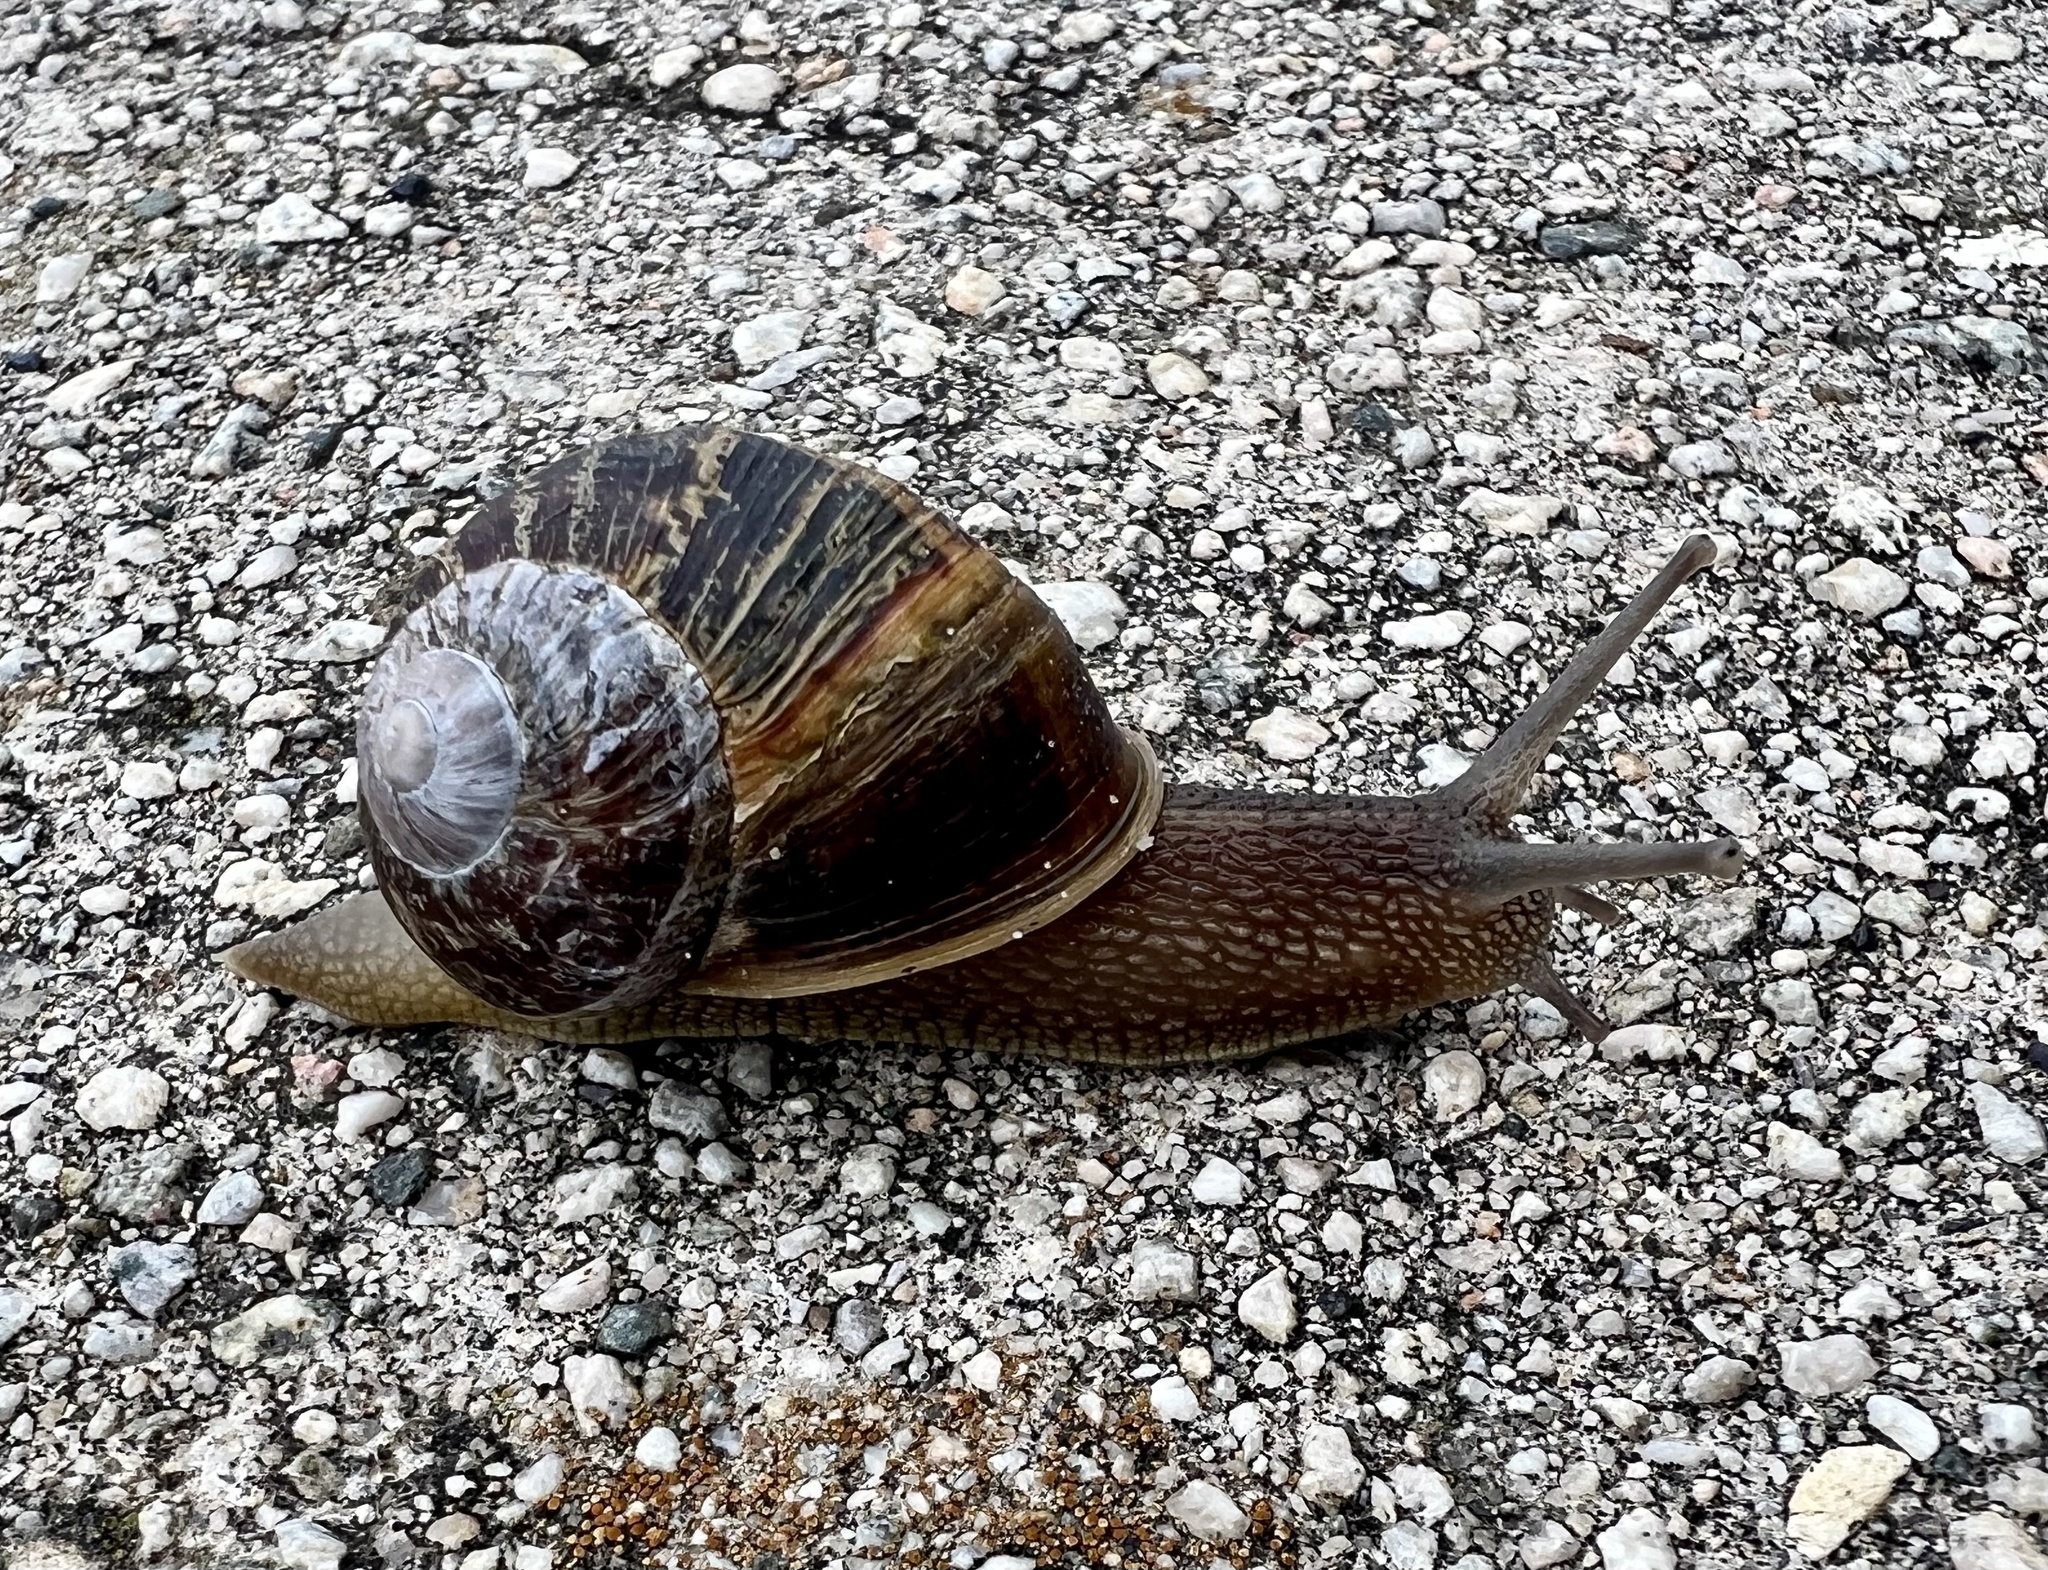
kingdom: Animalia
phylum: Mollusca
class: Gastropoda
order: Stylommatophora
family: Helicidae
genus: Cornu
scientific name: Cornu aspersum
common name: Brown garden snail
